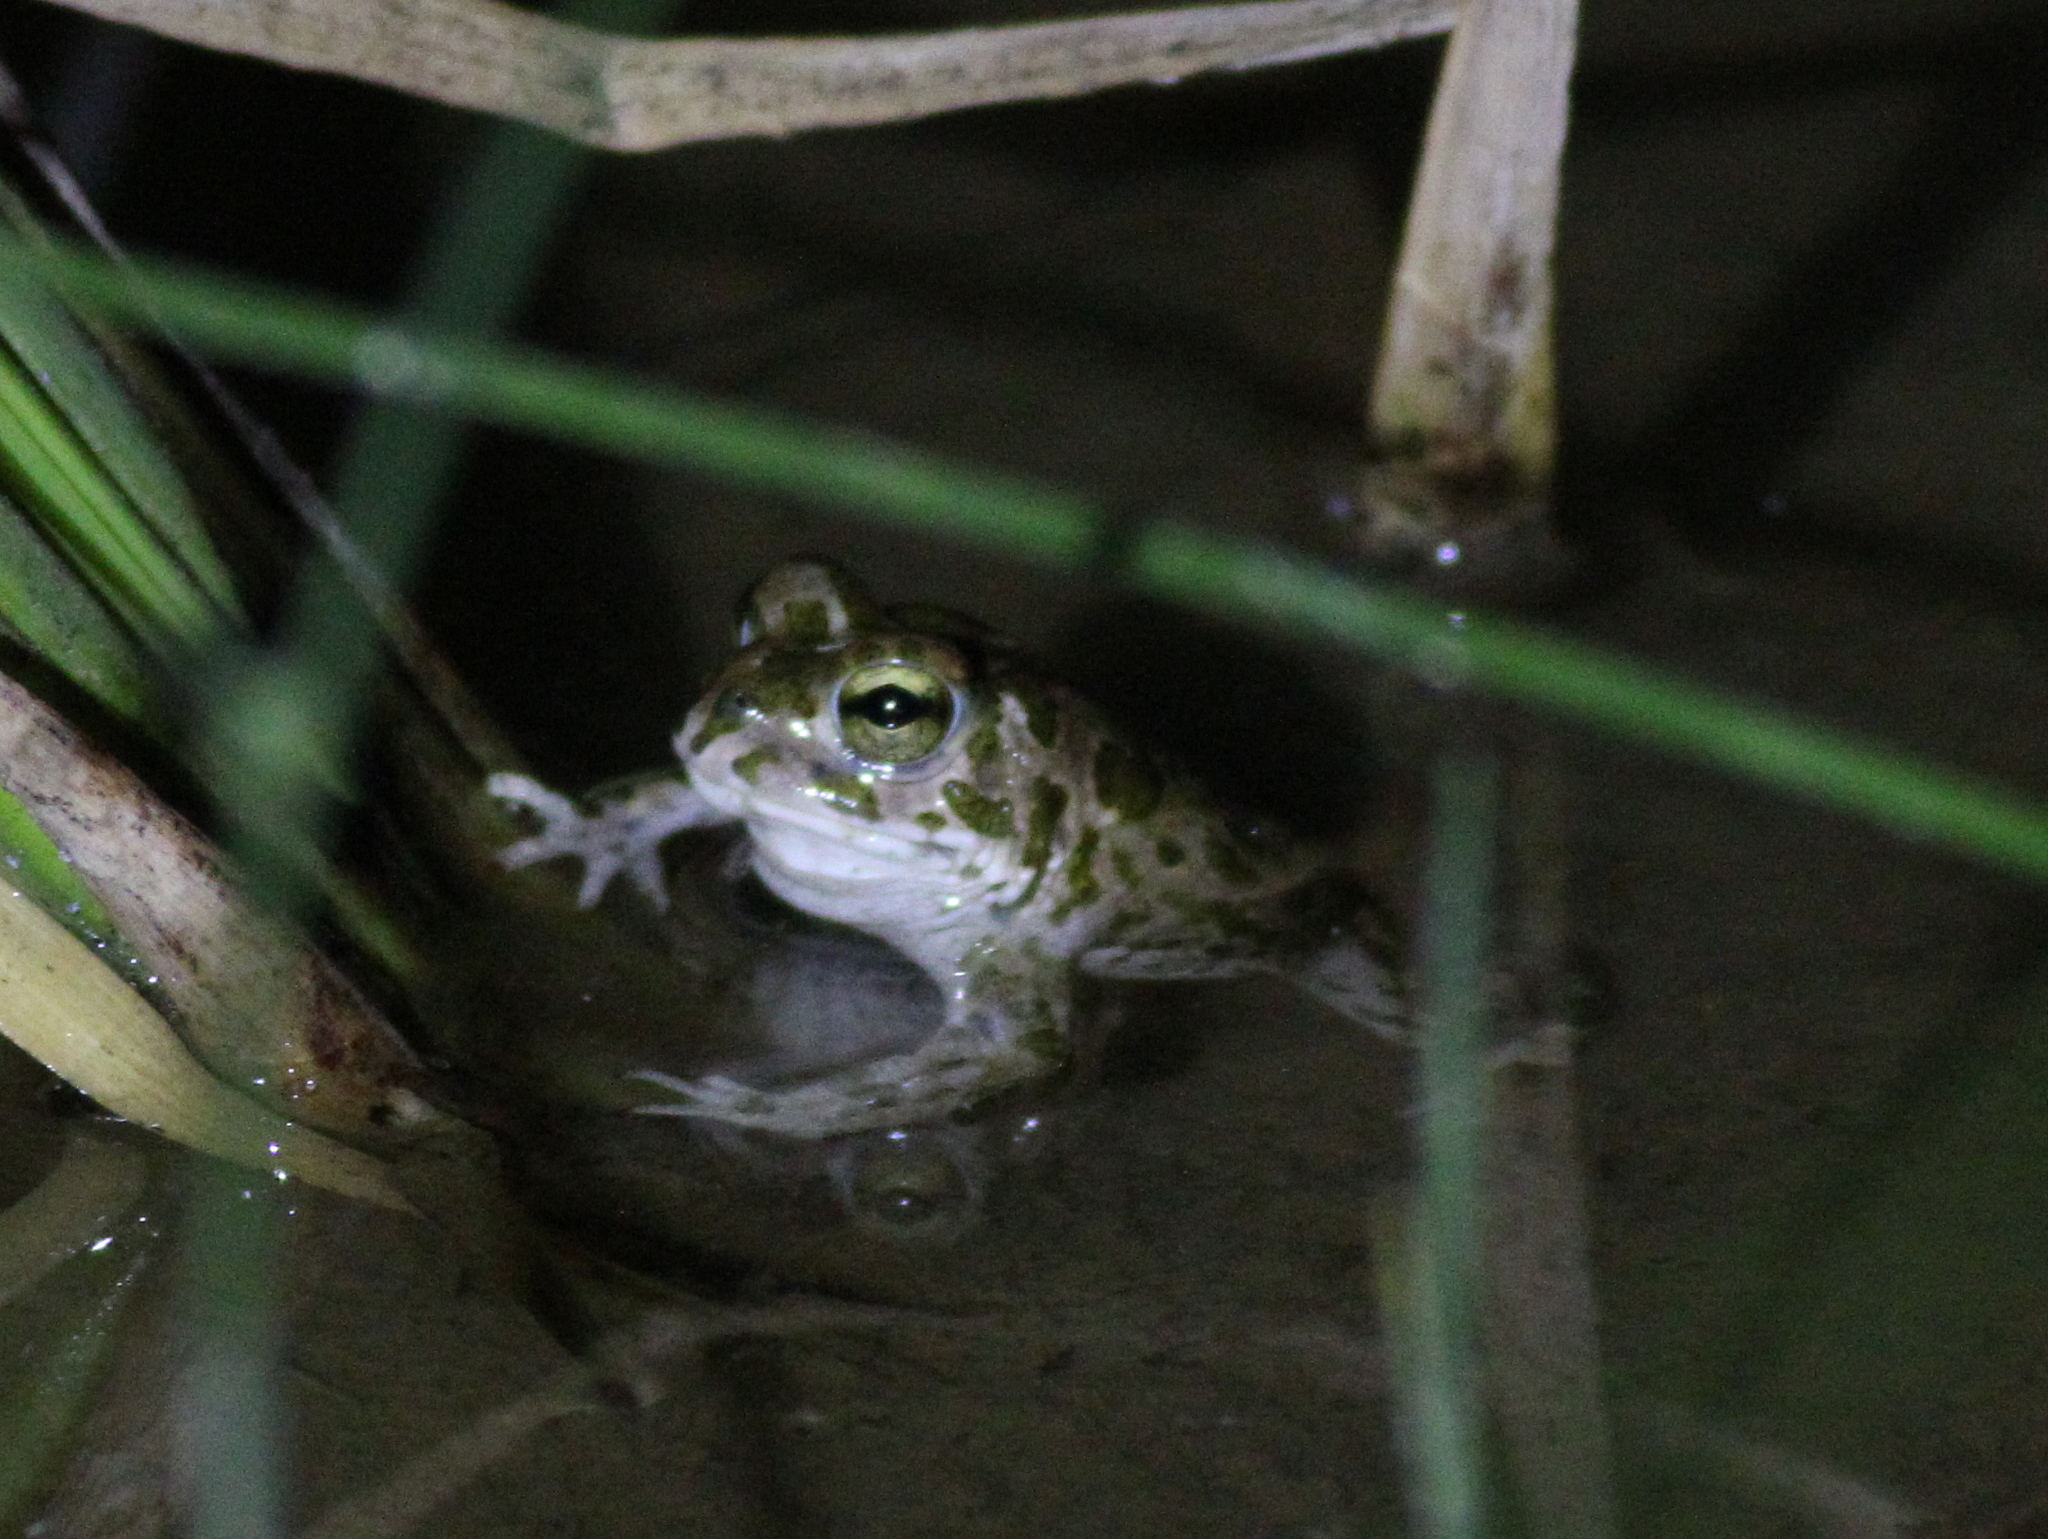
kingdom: Animalia
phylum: Chordata
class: Amphibia
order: Anura
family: Bufonidae
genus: Bufotes
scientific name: Bufotes boulengeri
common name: African green toad
